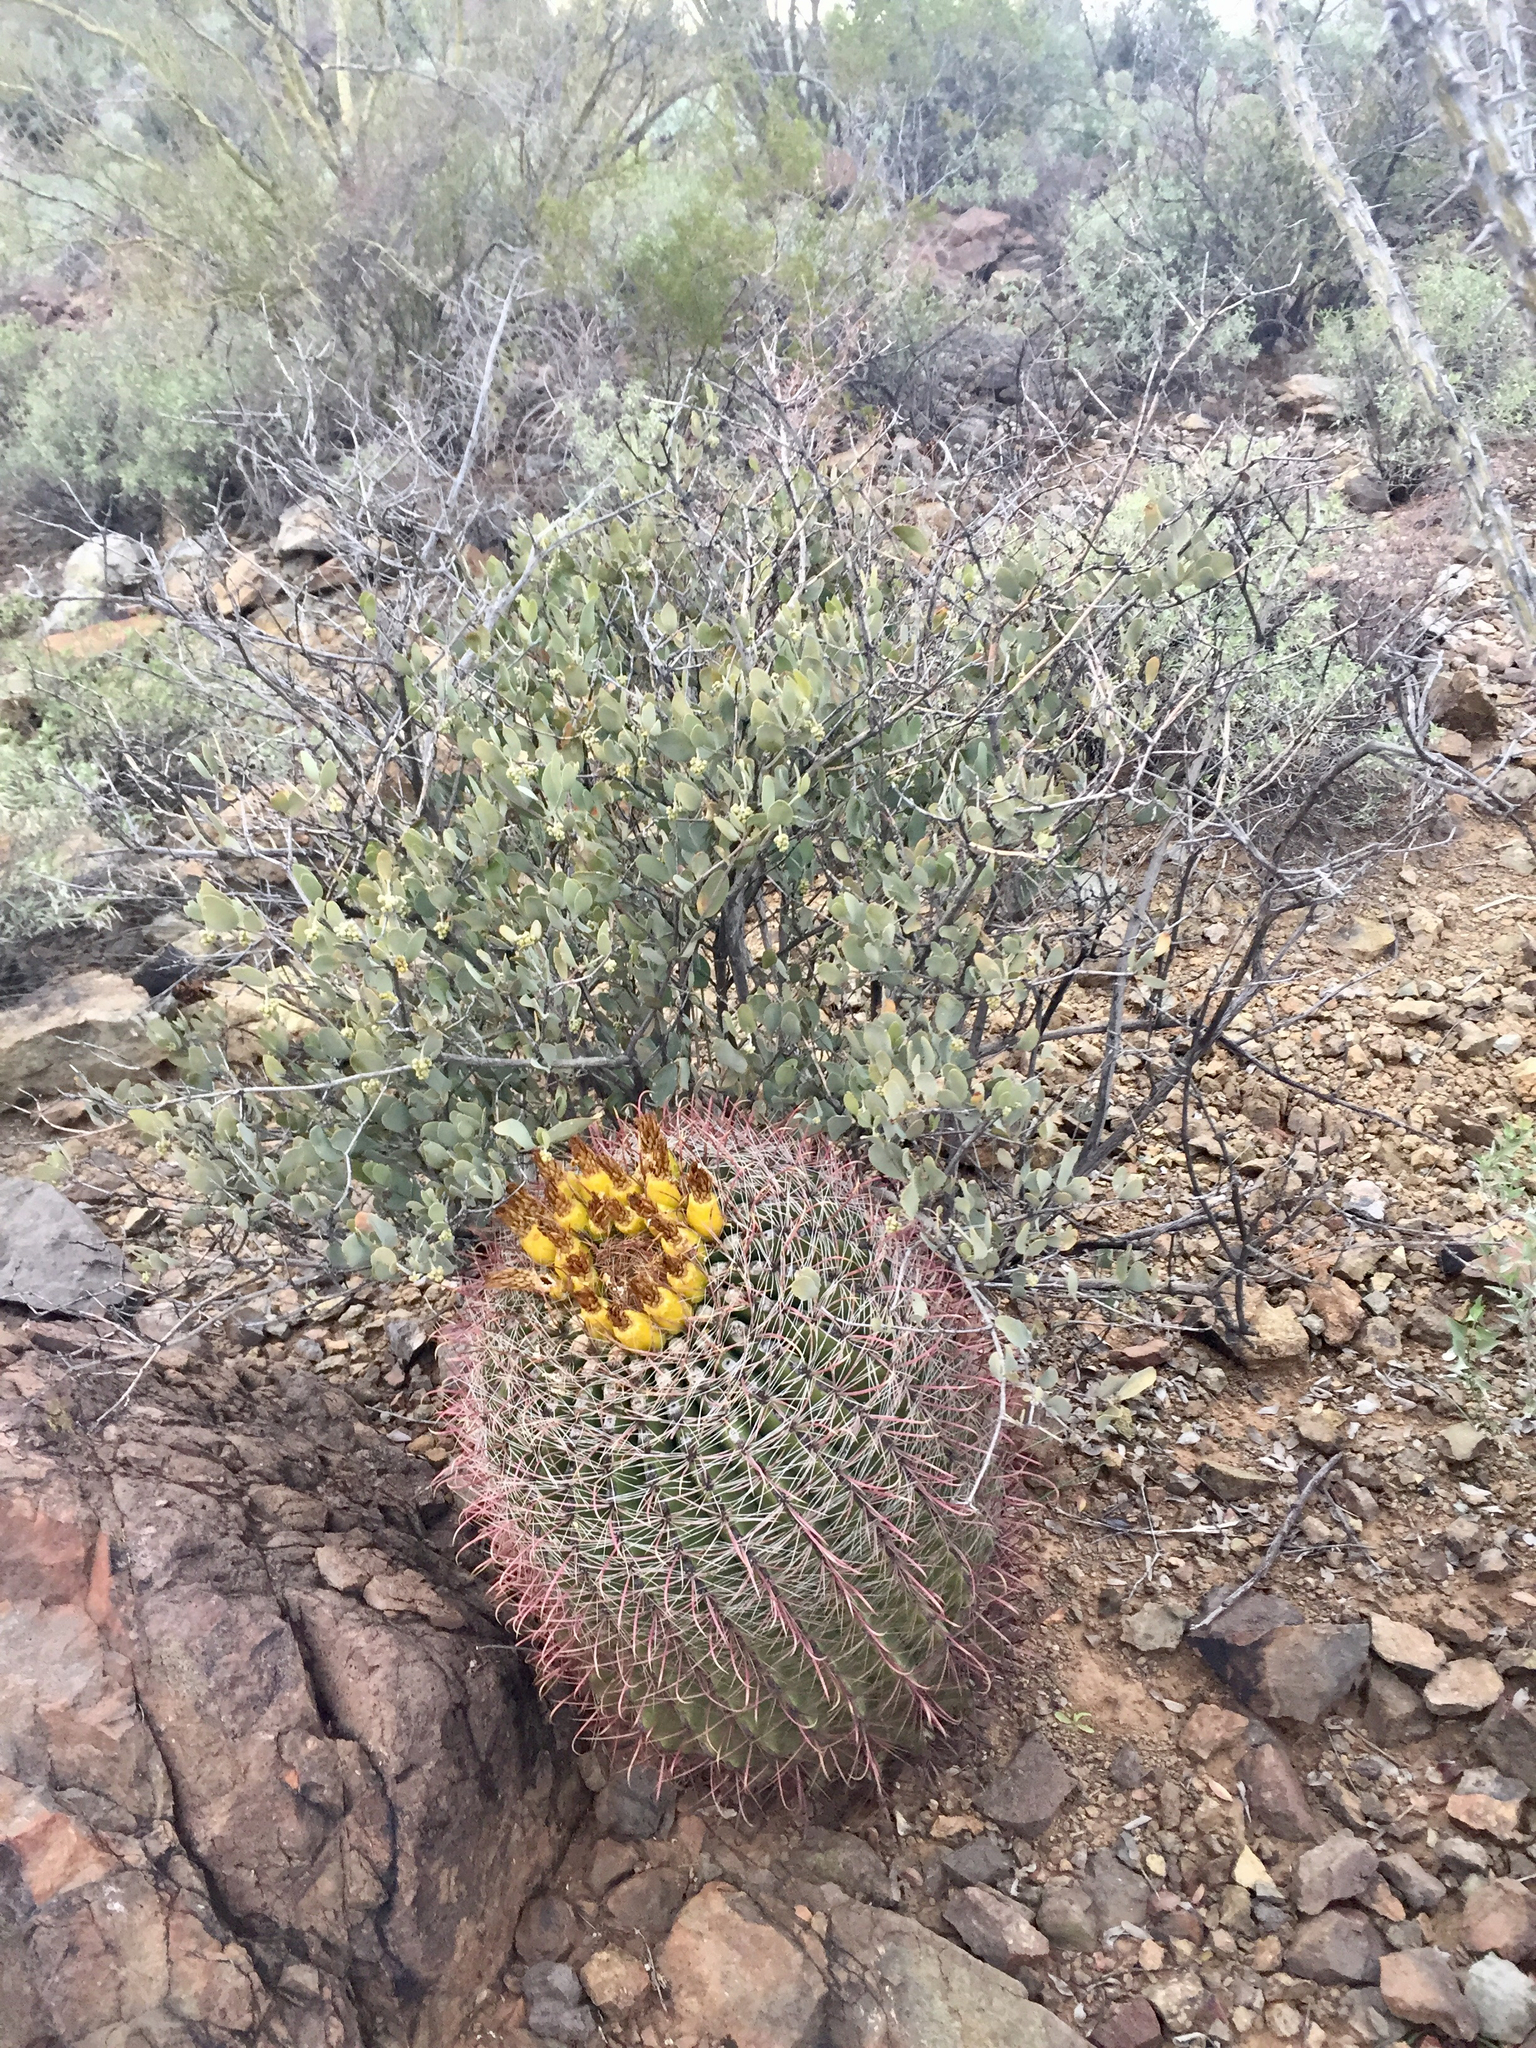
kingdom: Plantae
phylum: Tracheophyta
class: Magnoliopsida
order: Caryophyllales
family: Cactaceae
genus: Ferocactus
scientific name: Ferocactus wislizeni
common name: Candy barrel cactus
